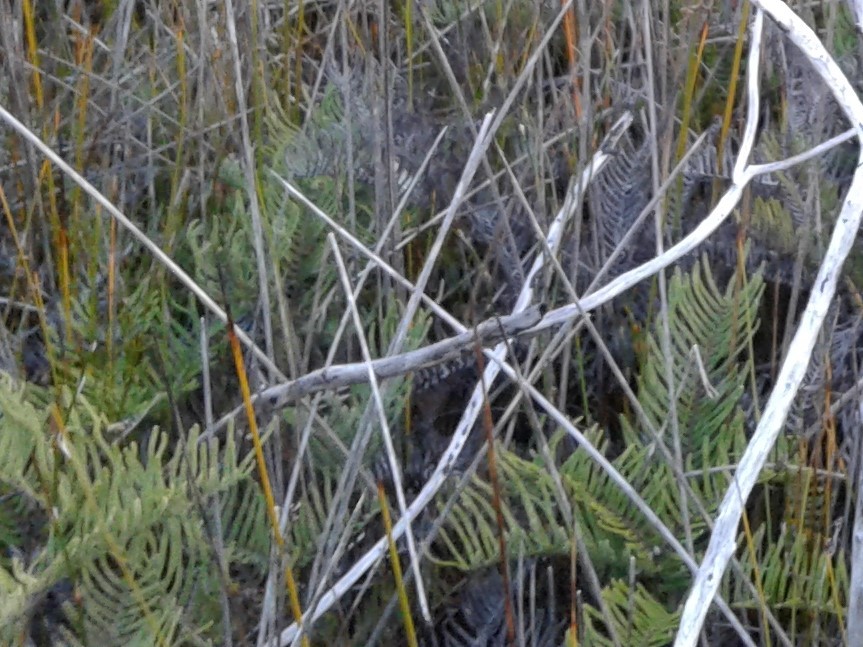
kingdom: Plantae
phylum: Tracheophyta
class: Polypodiopsida
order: Gleicheniales
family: Gleicheniaceae
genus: Gleichenia
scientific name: Gleichenia dicarpa
